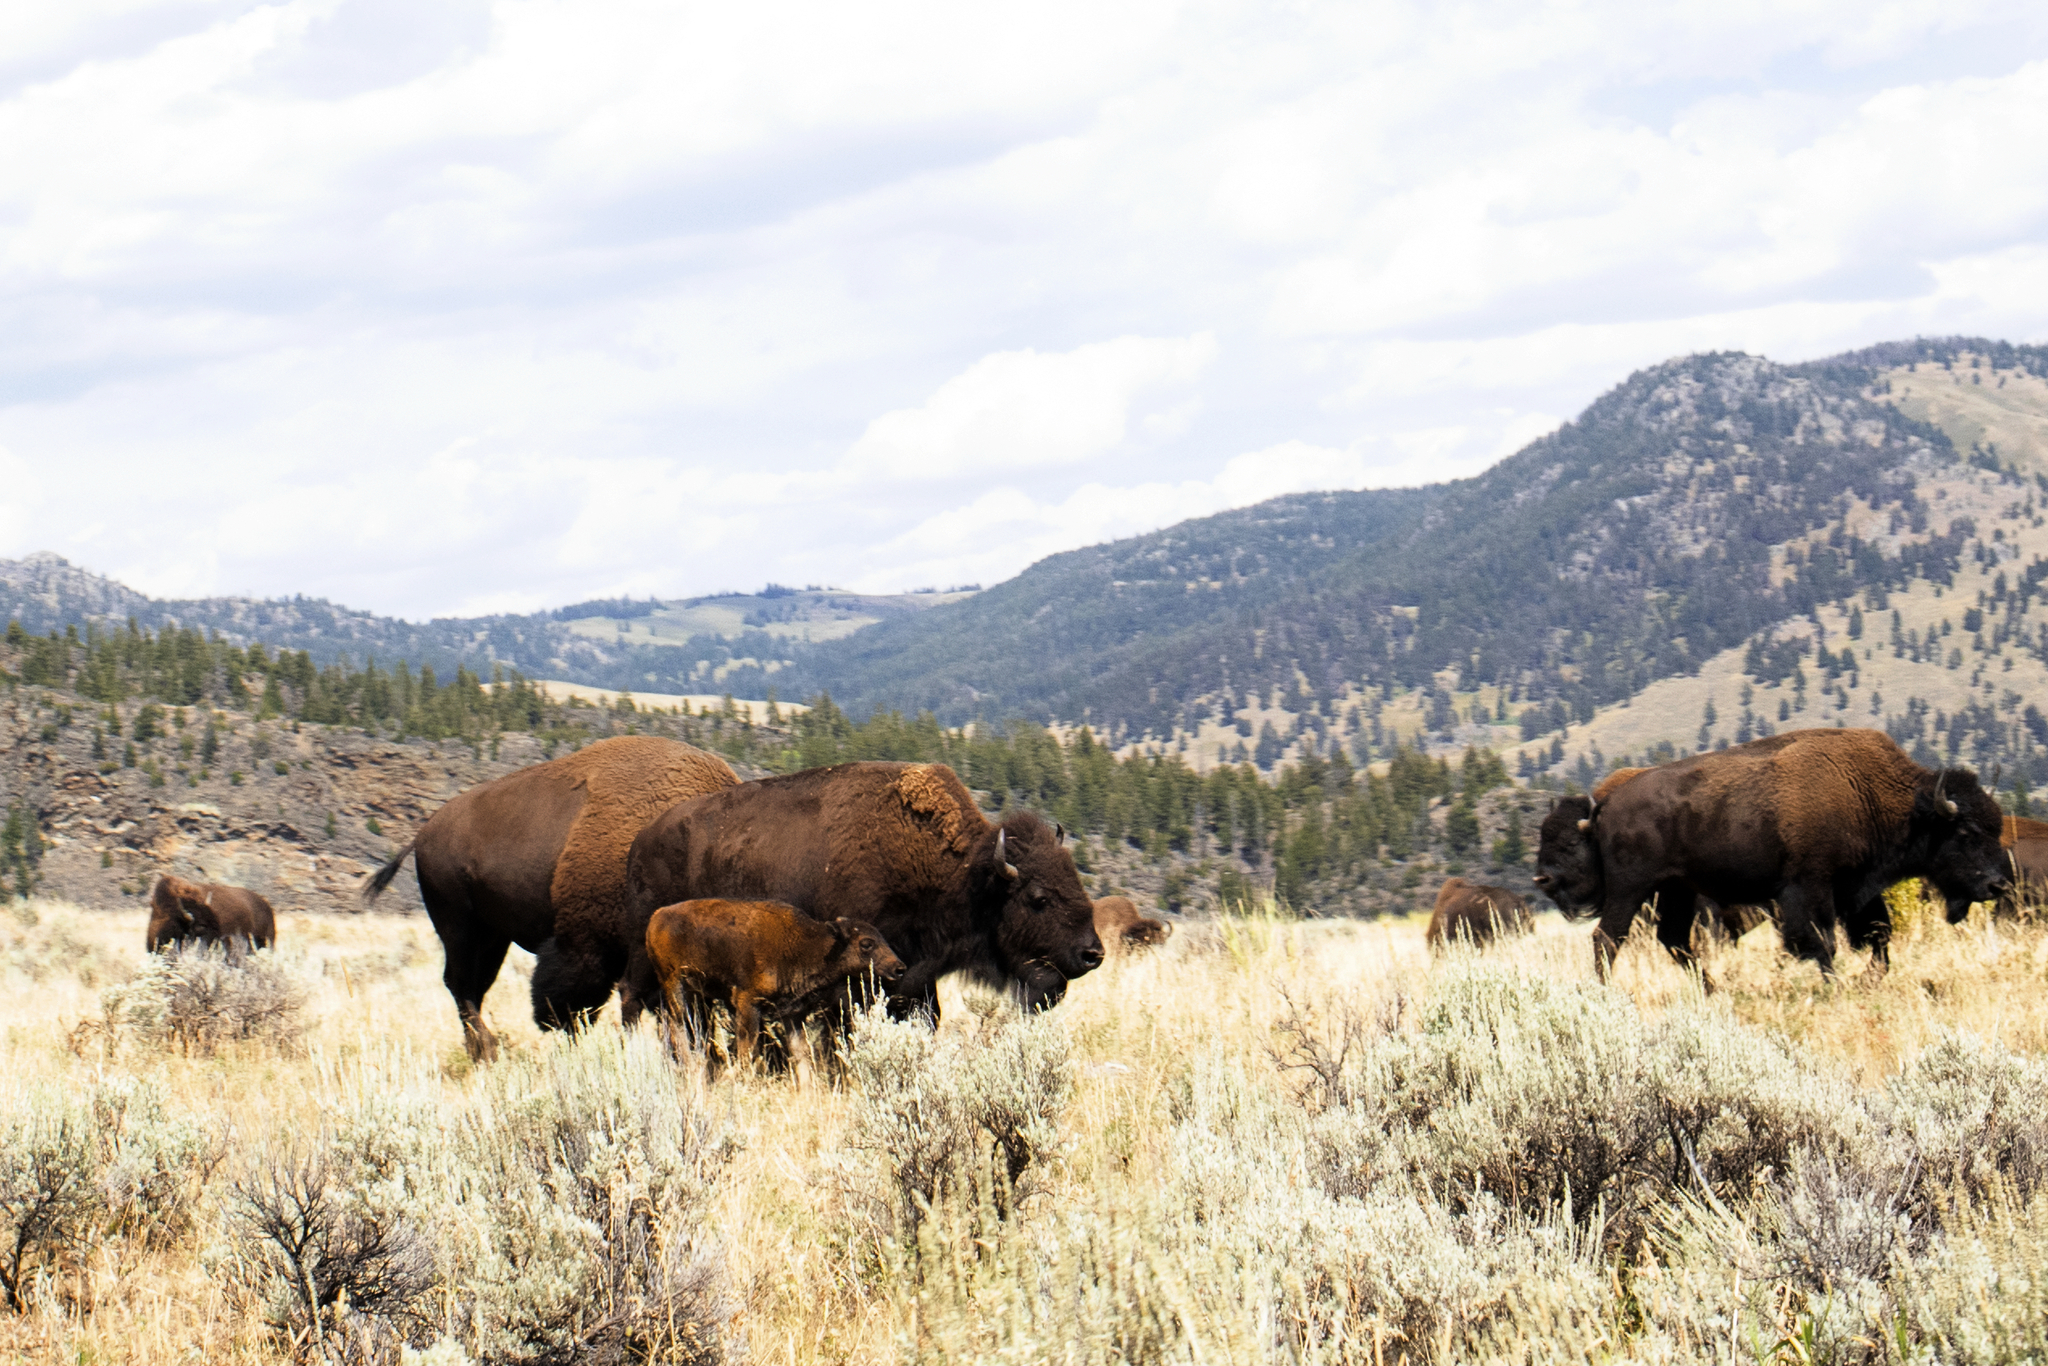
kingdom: Animalia
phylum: Chordata
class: Mammalia
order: Artiodactyla
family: Bovidae
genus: Bison
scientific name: Bison bison
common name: American bison
